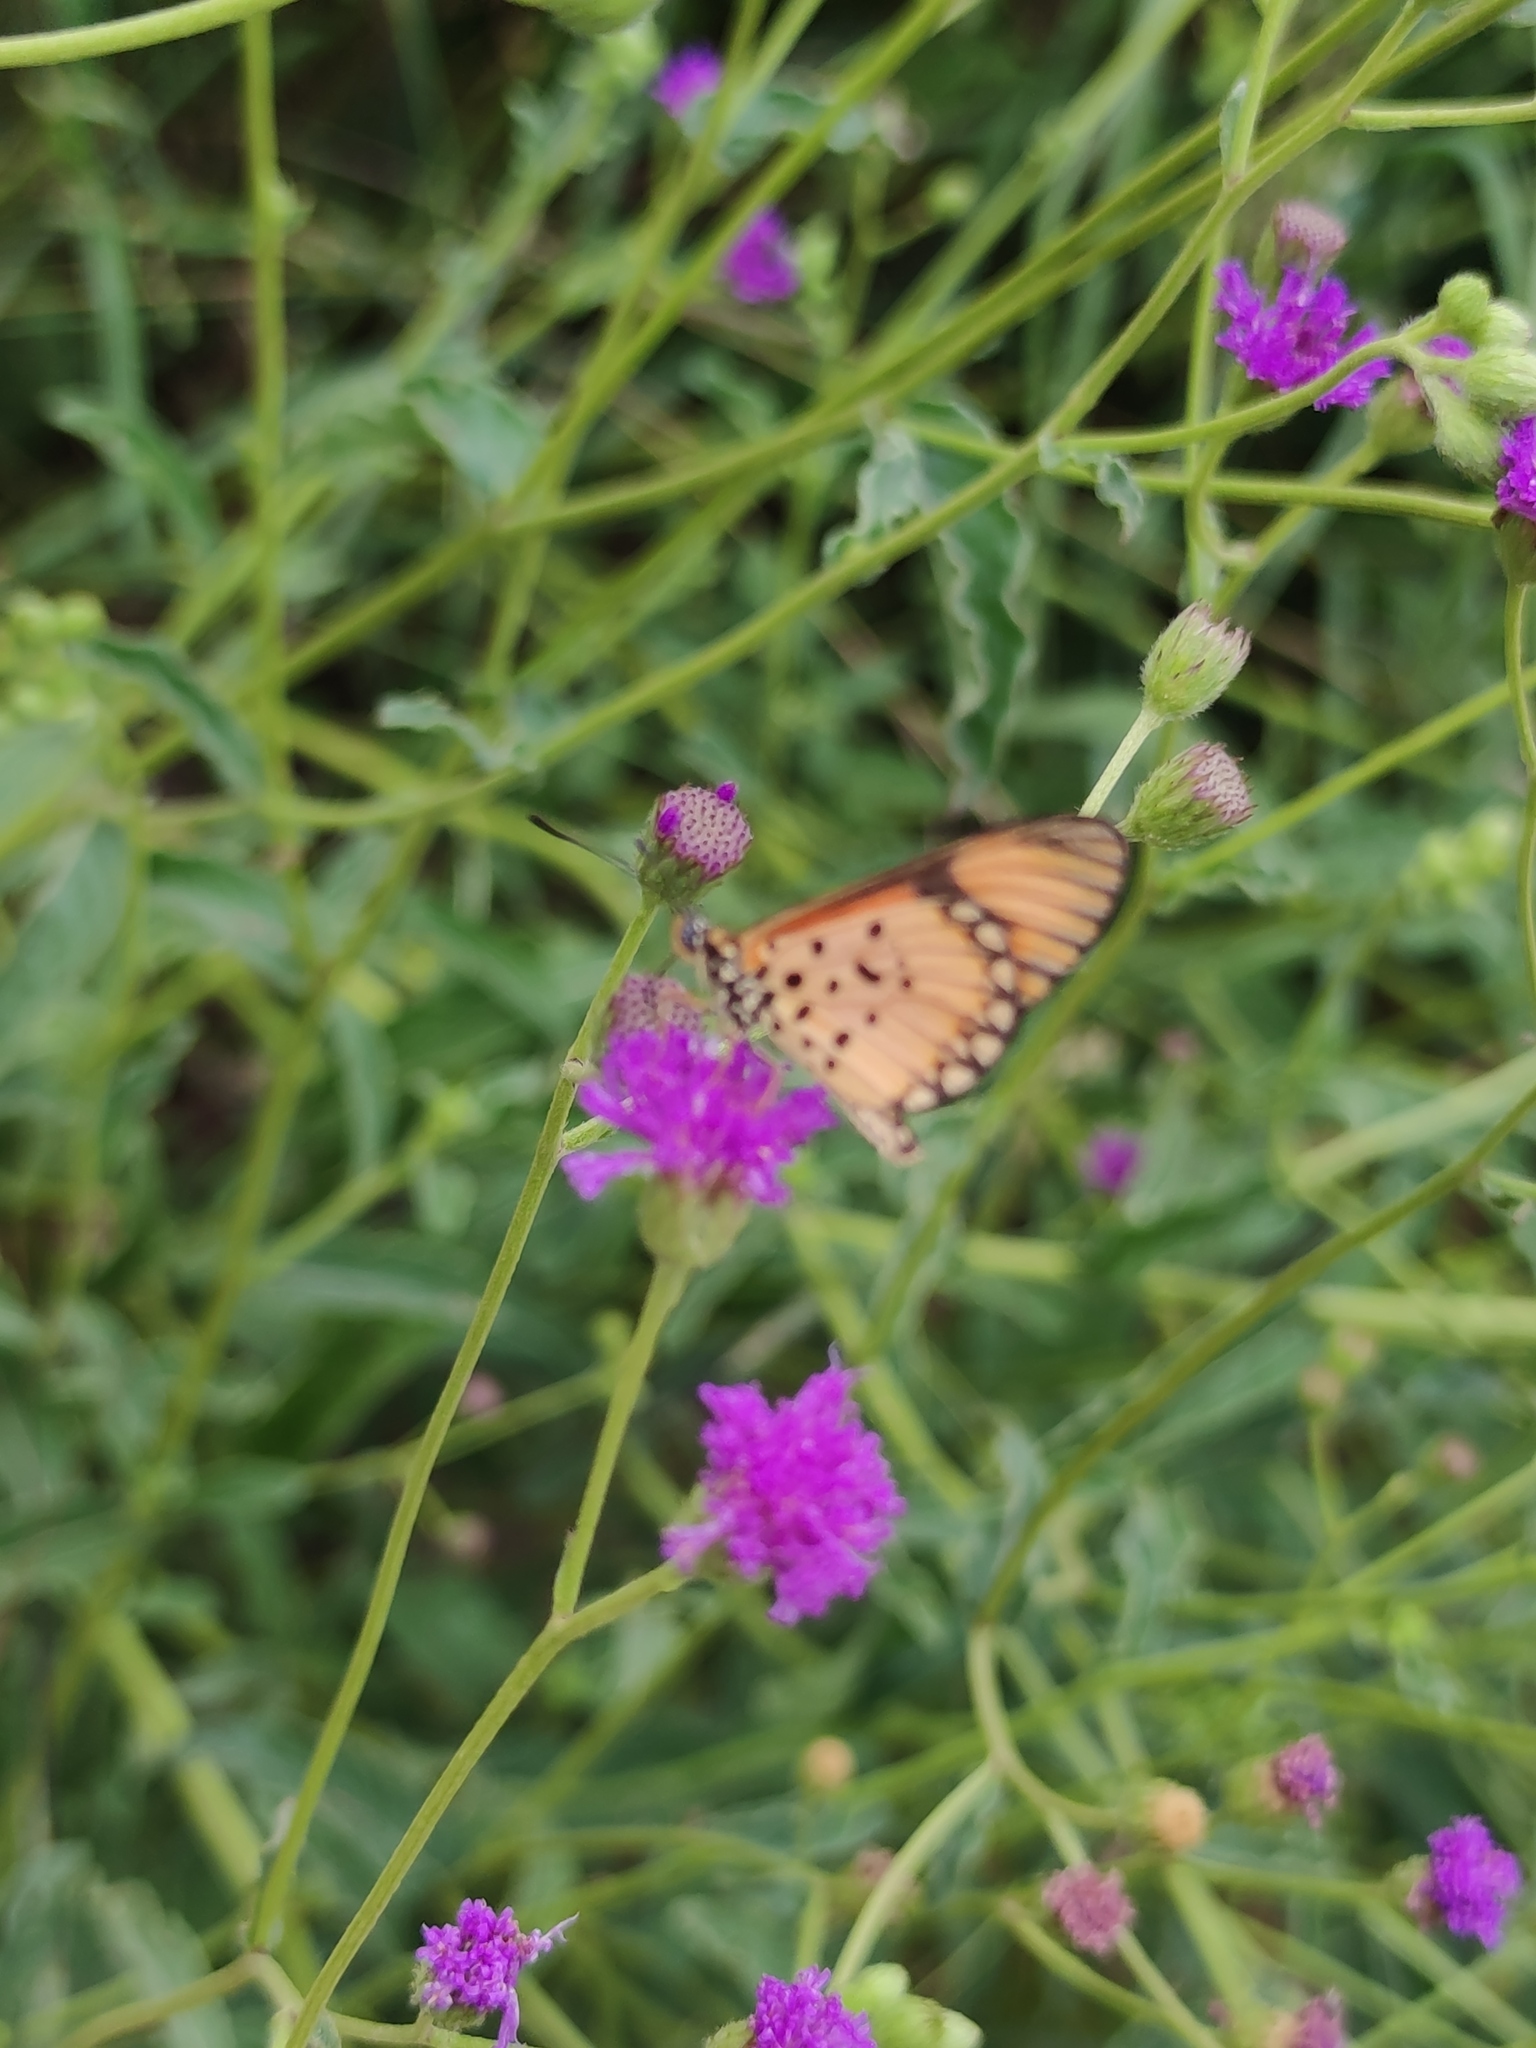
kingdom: Animalia
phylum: Arthropoda
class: Insecta
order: Lepidoptera
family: Nymphalidae
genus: Acraea
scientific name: Acraea Telchinia serena
